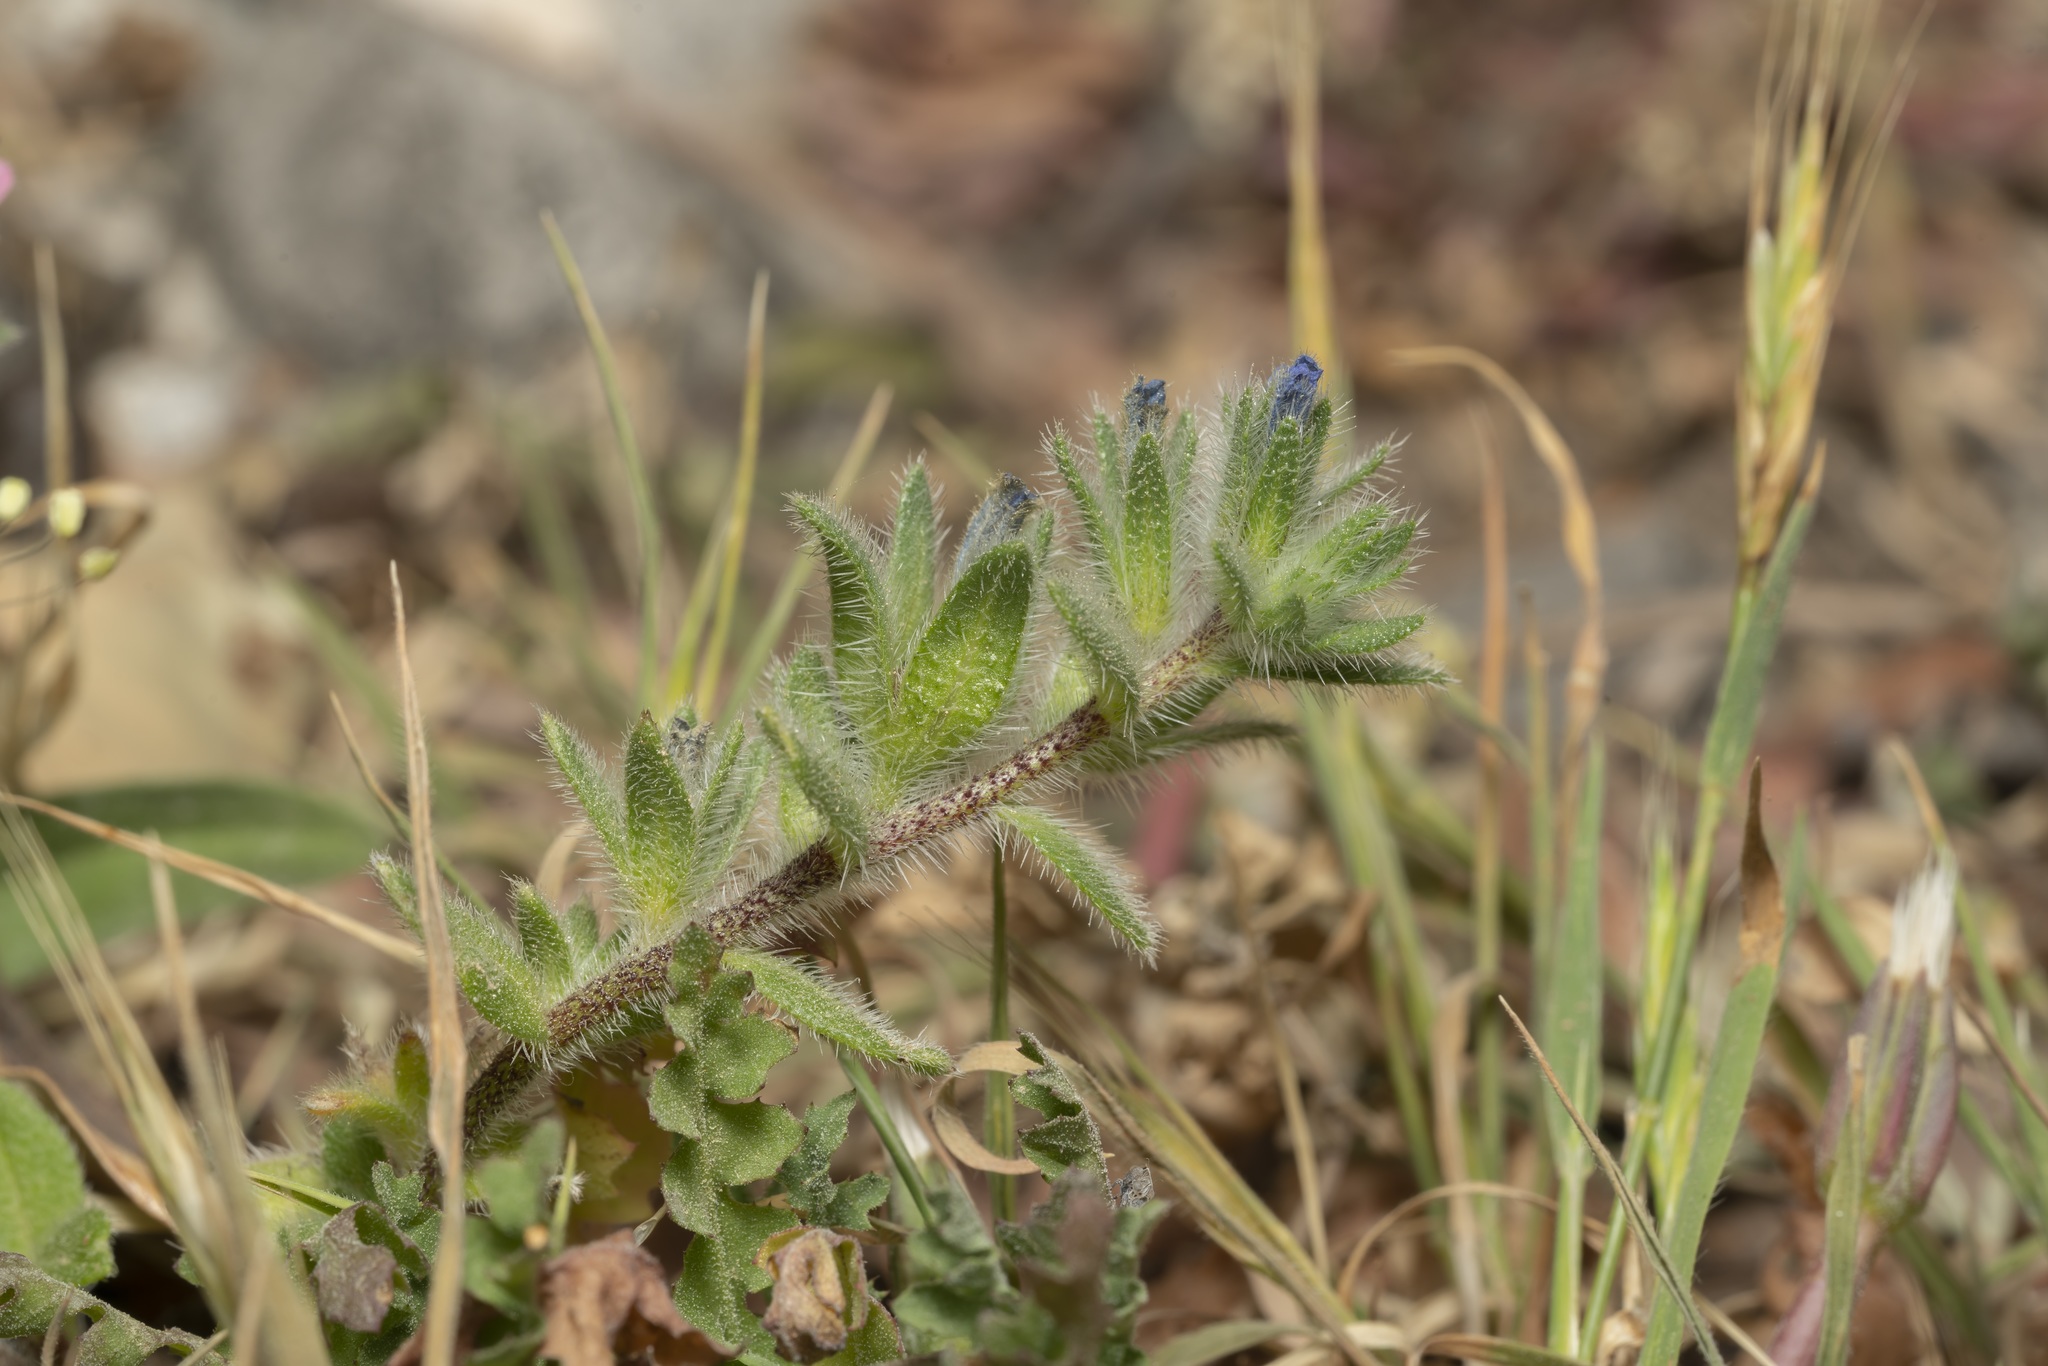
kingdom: Plantae
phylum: Tracheophyta
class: Magnoliopsida
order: Boraginales
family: Boraginaceae
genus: Echium
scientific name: Echium parviflorum
